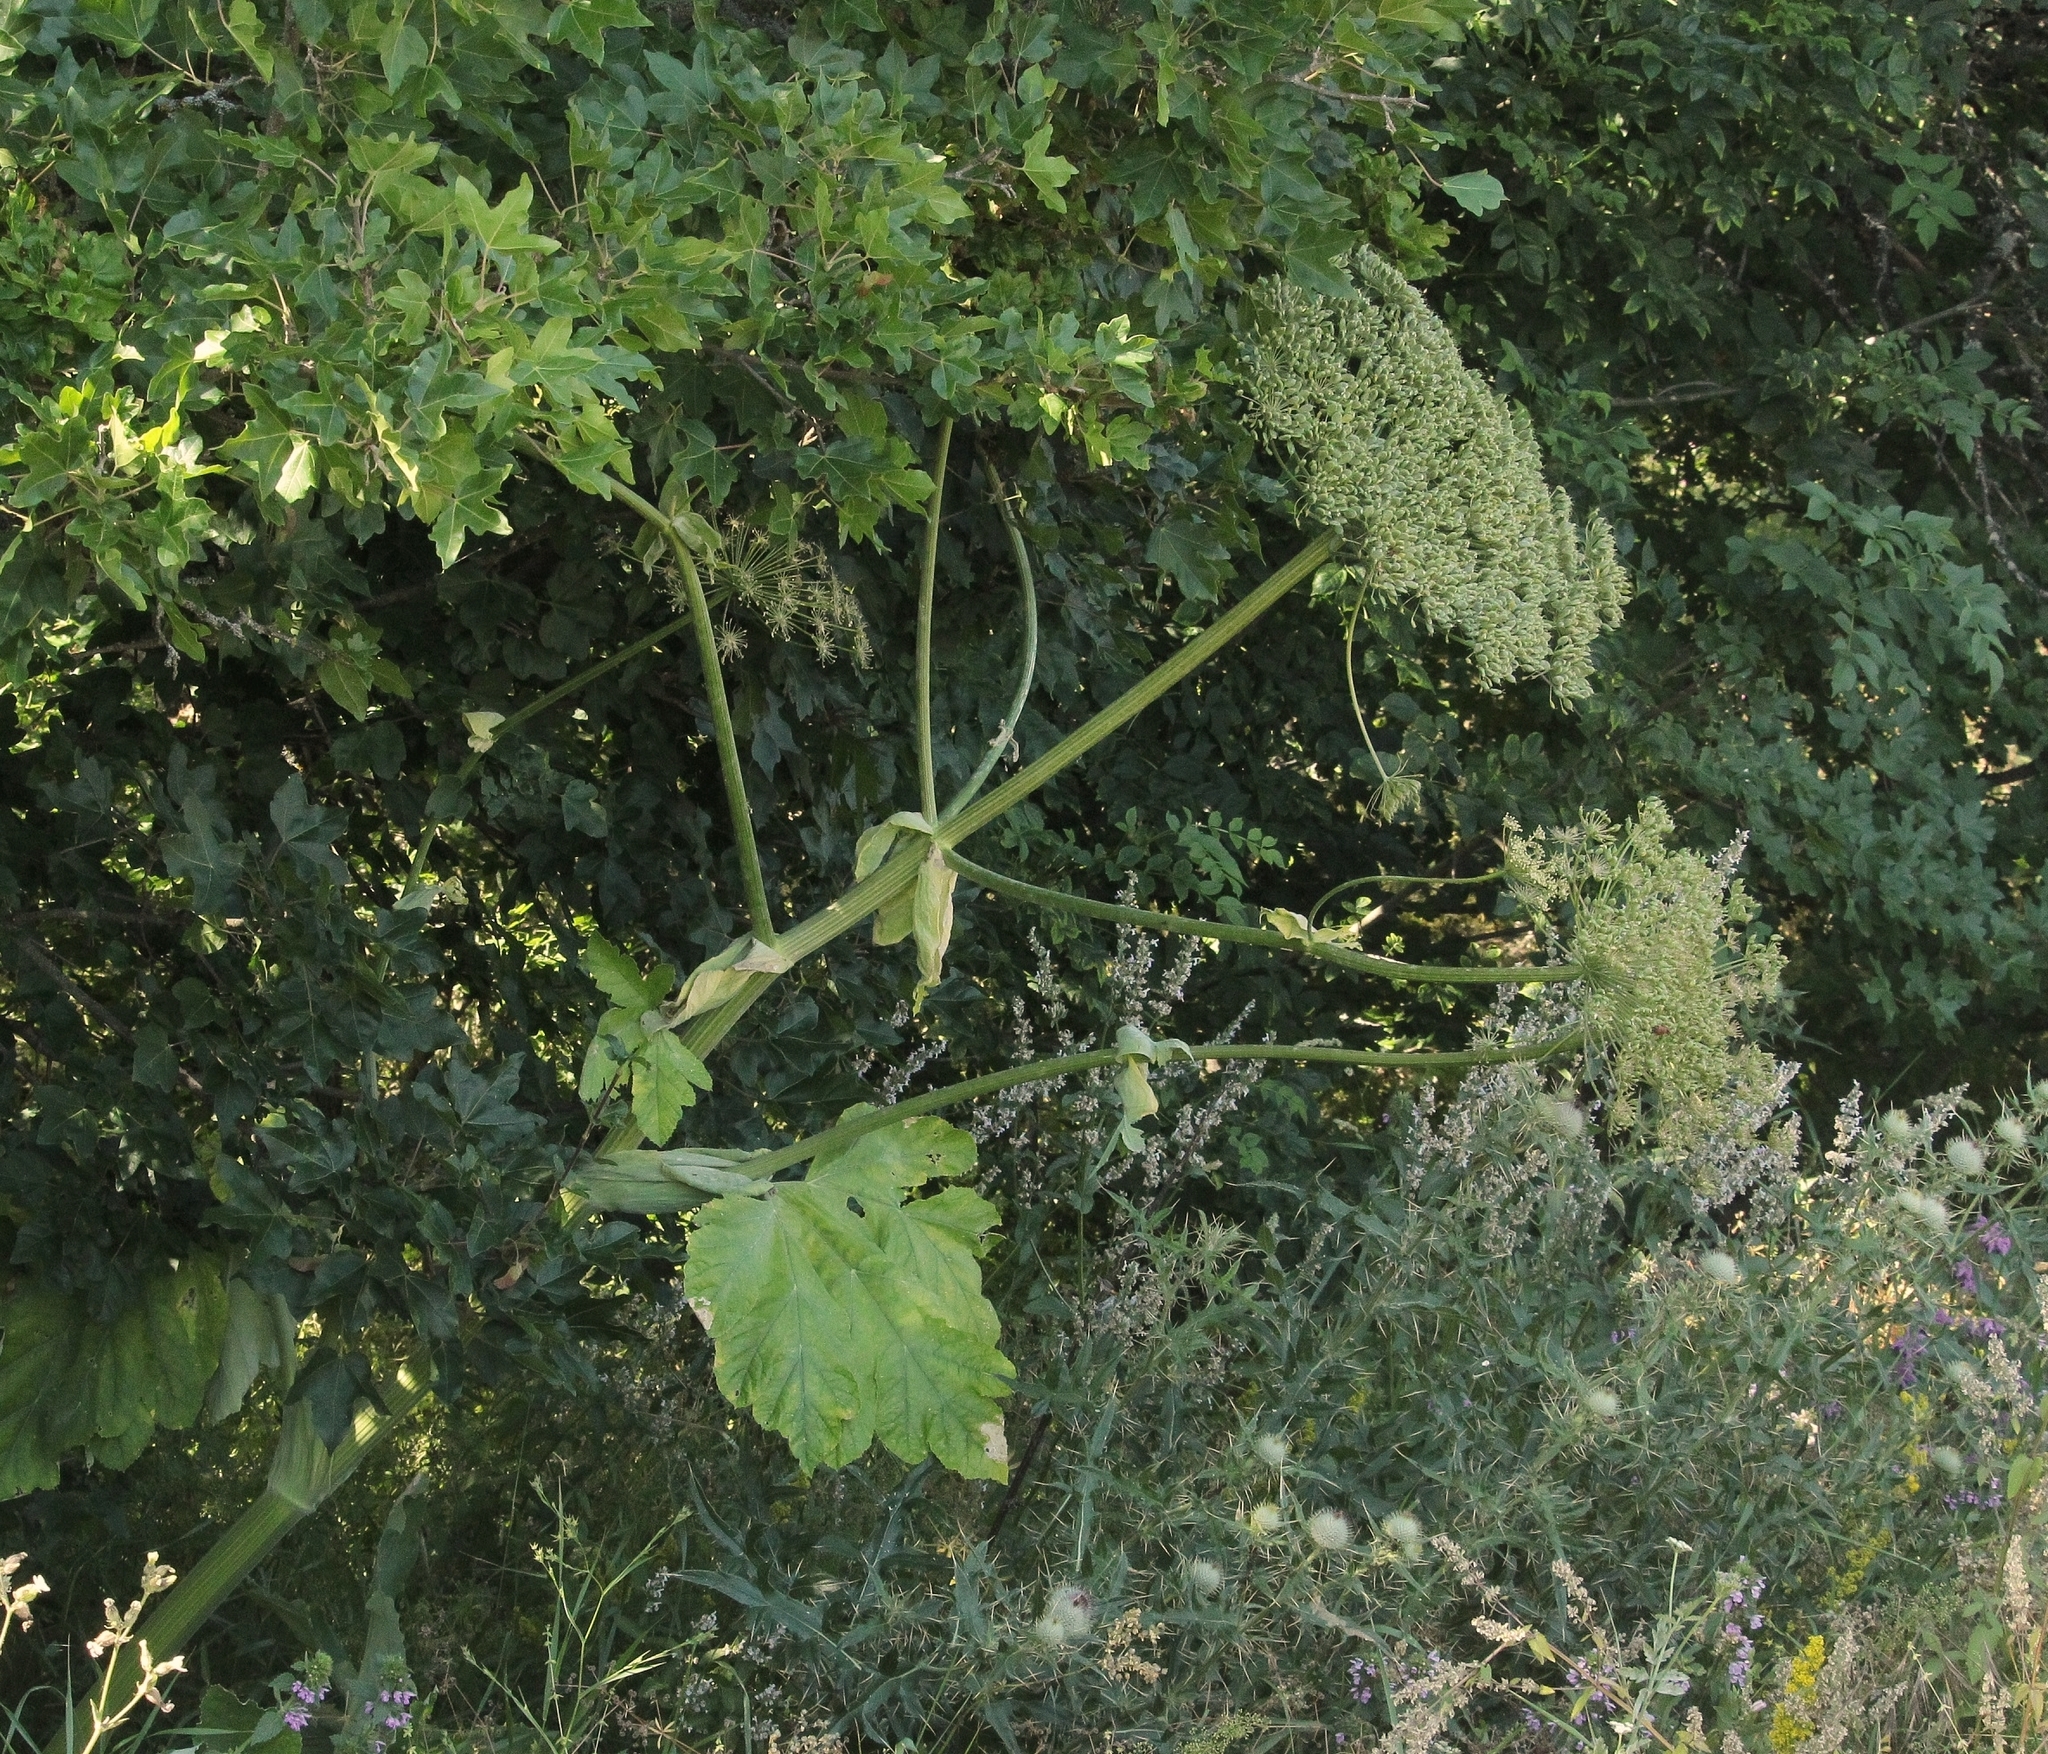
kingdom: Plantae
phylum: Tracheophyta
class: Magnoliopsida
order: Apiales
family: Apiaceae
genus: Heracleum
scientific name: Heracleum stevenii
